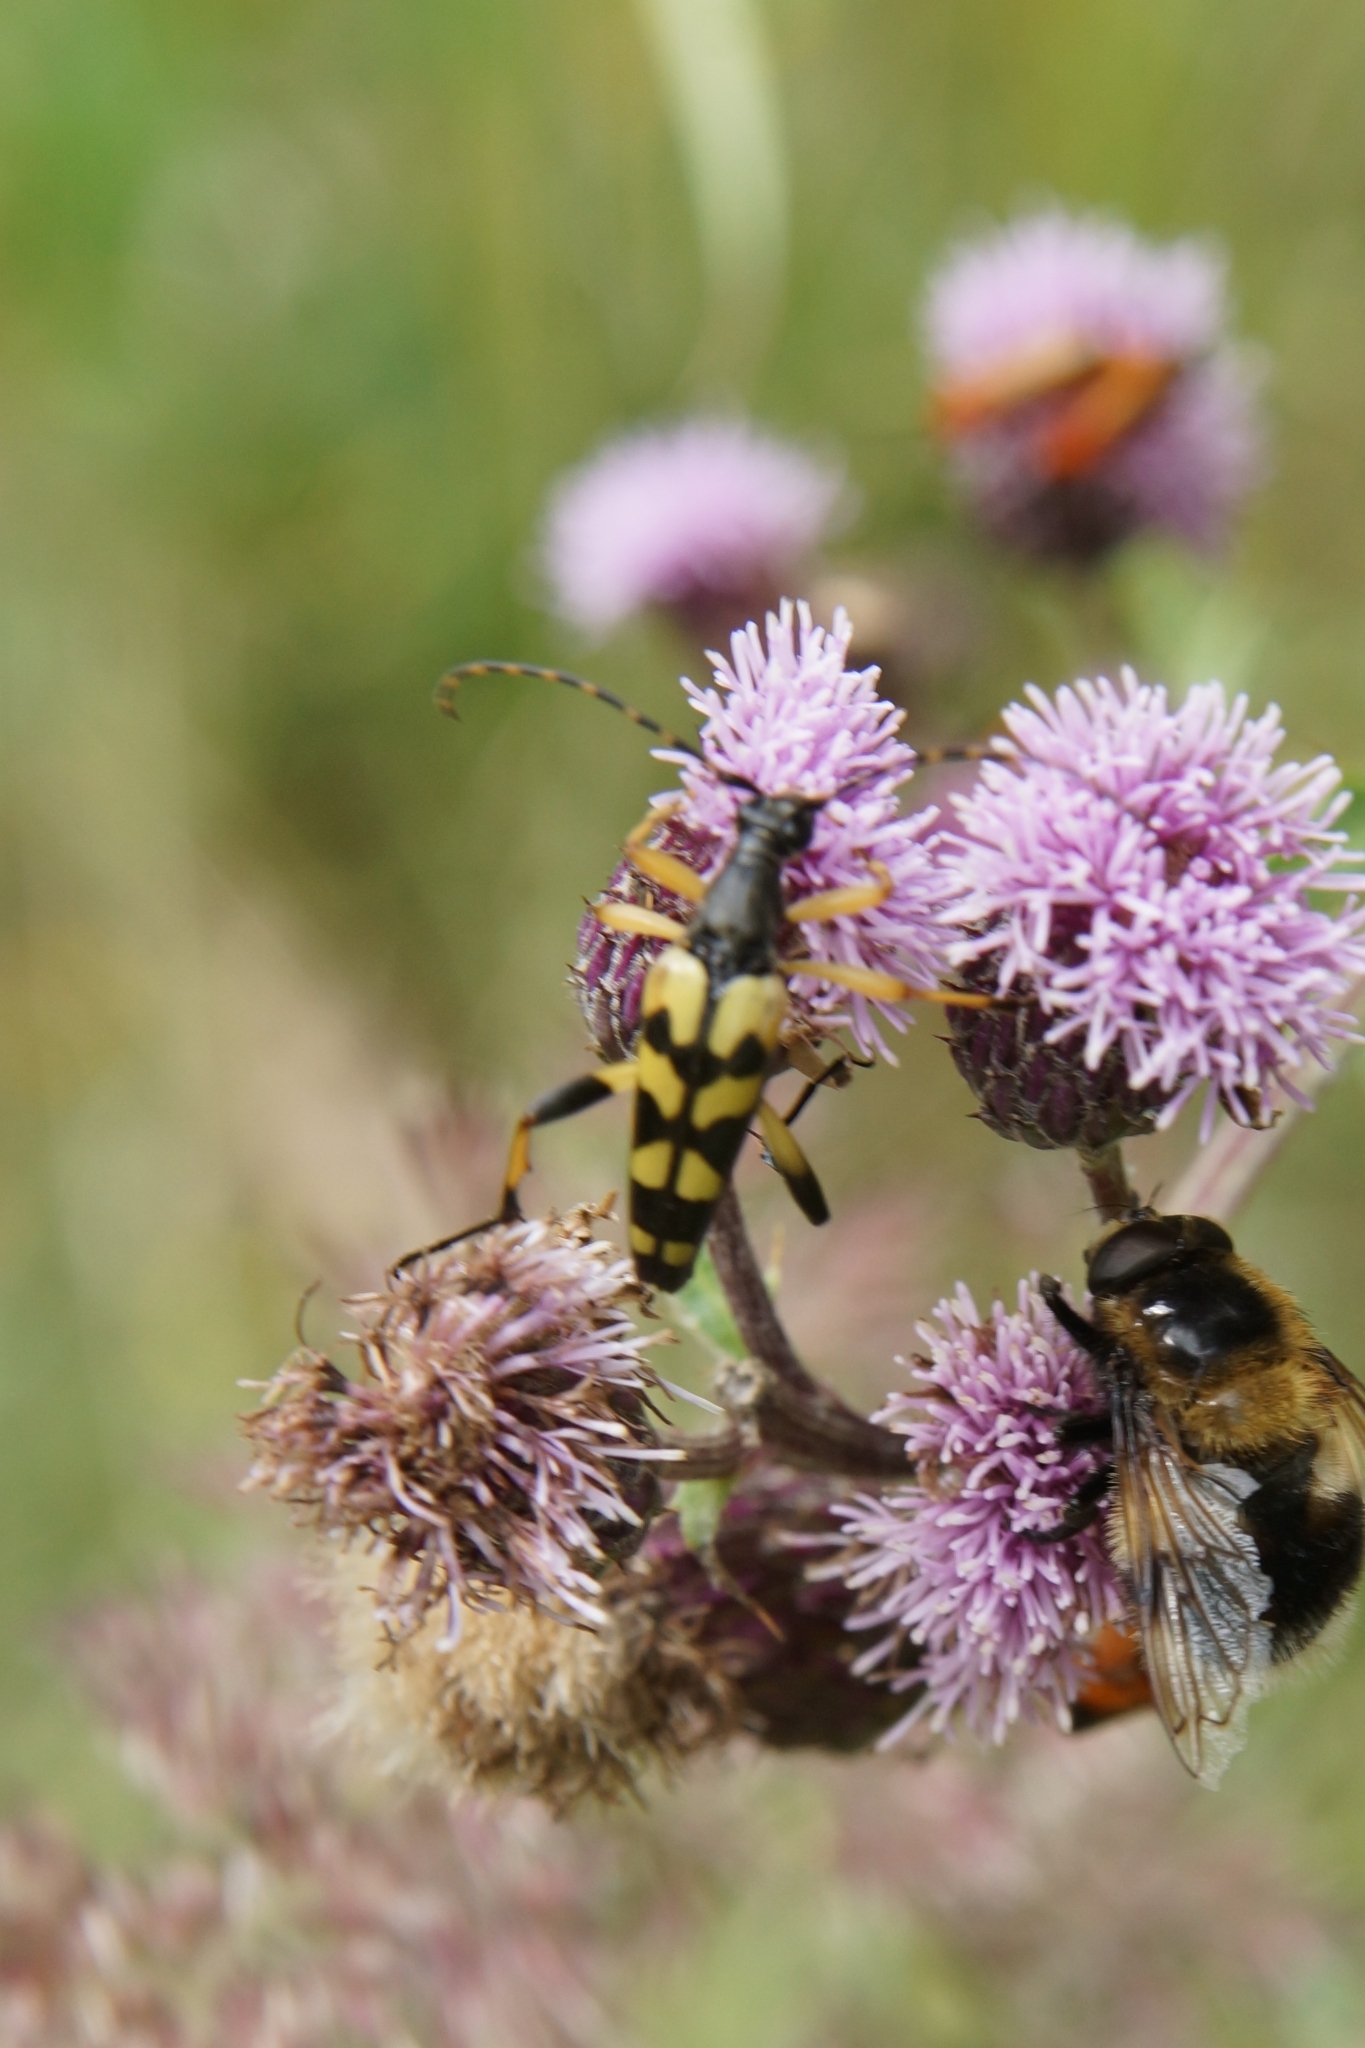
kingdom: Animalia
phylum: Arthropoda
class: Insecta
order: Coleoptera
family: Cerambycidae
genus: Rutpela
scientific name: Rutpela maculata
